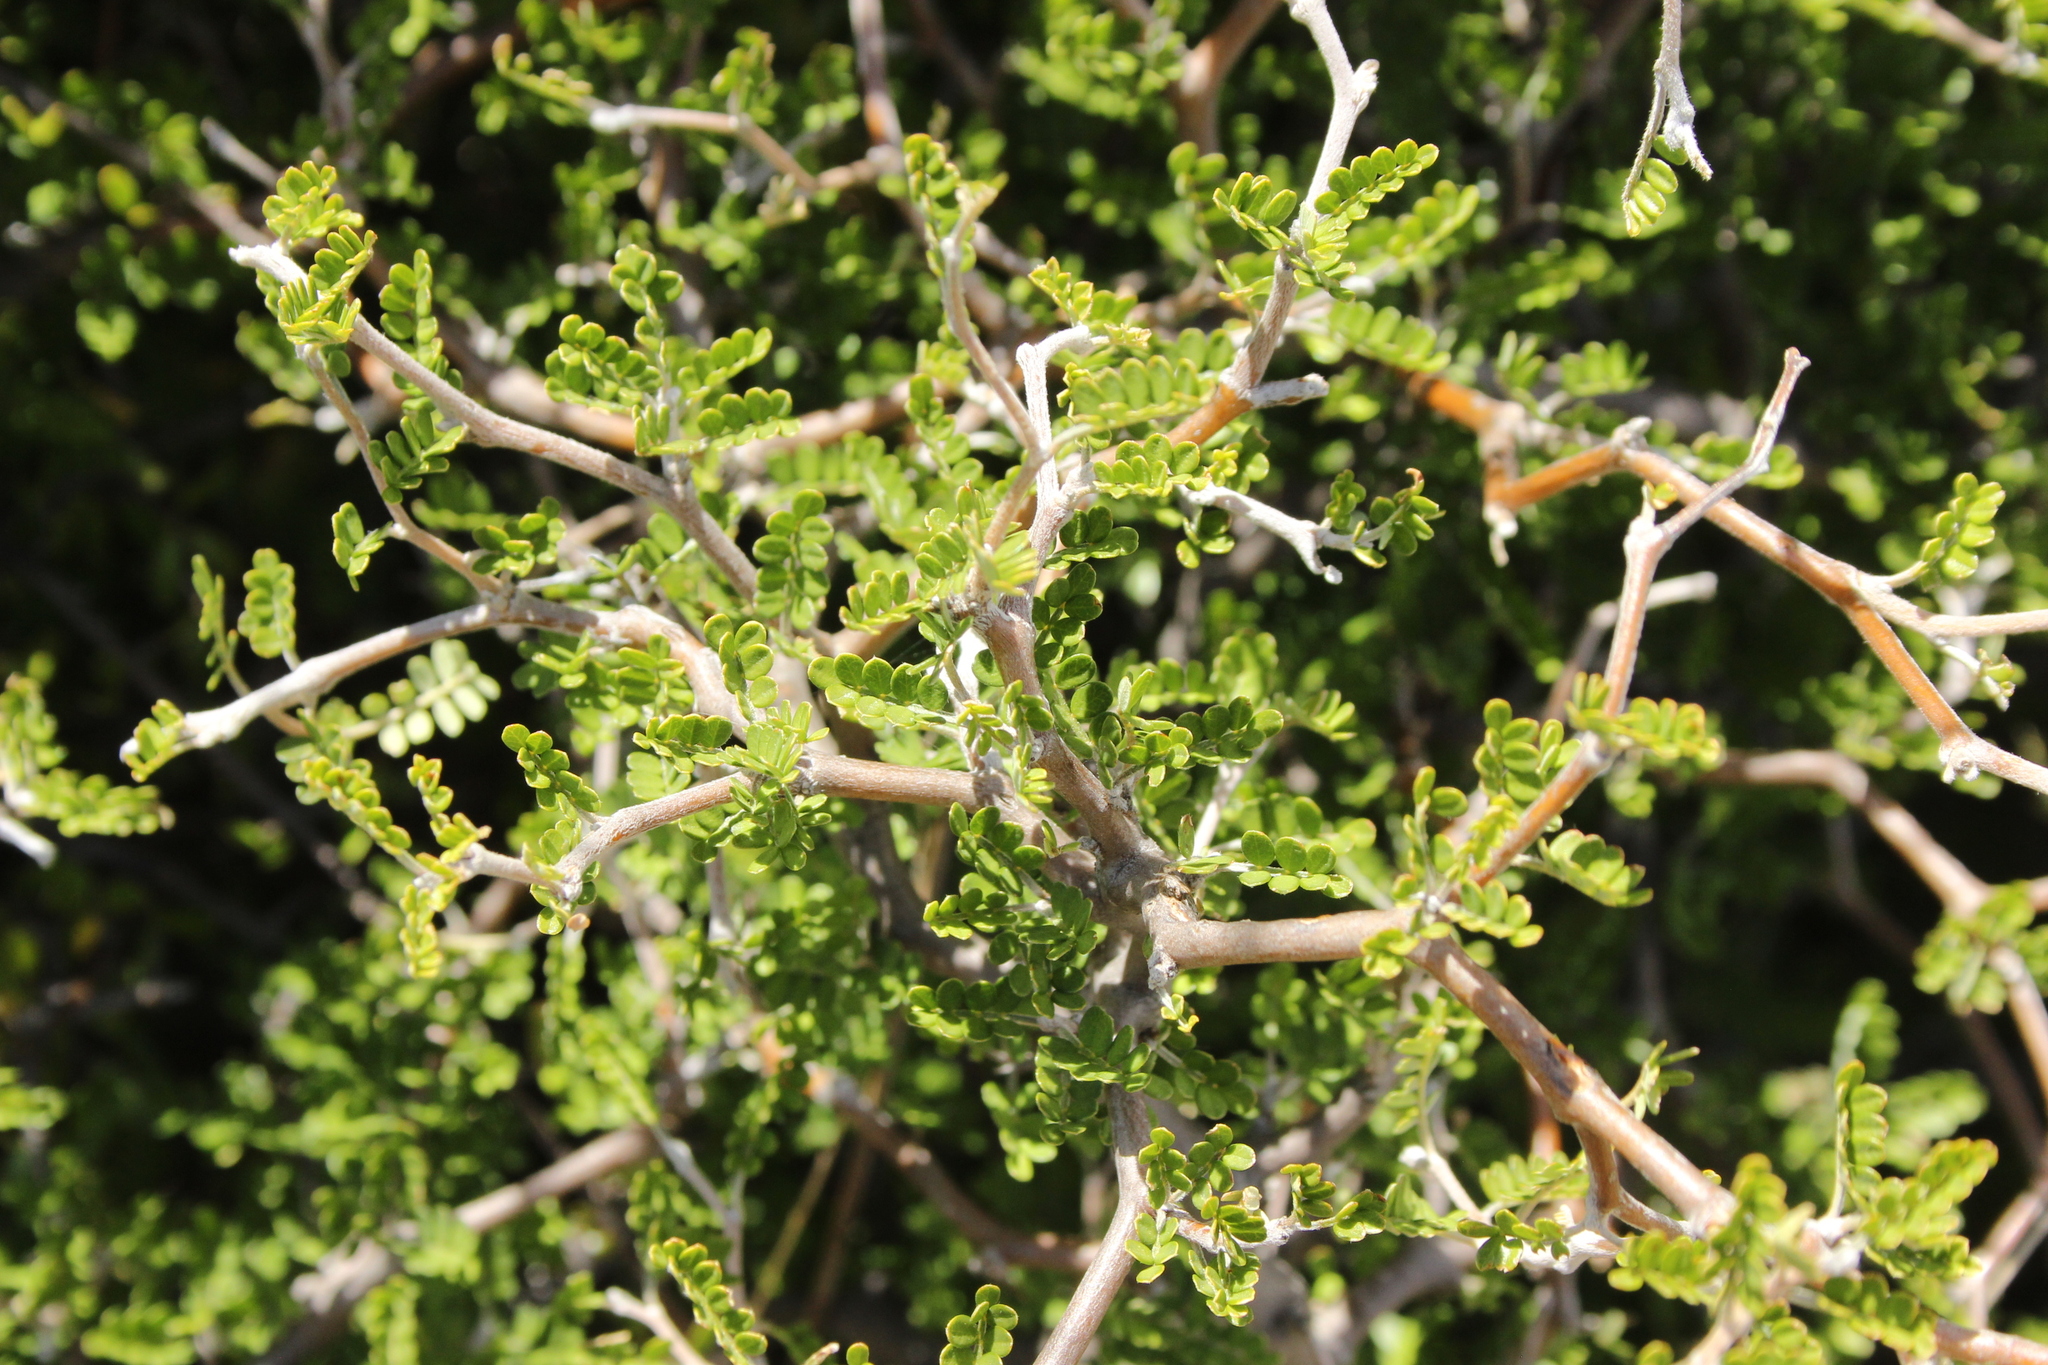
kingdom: Plantae
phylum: Tracheophyta
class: Magnoliopsida
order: Fabales
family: Fabaceae
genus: Sophora
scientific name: Sophora prostrata
